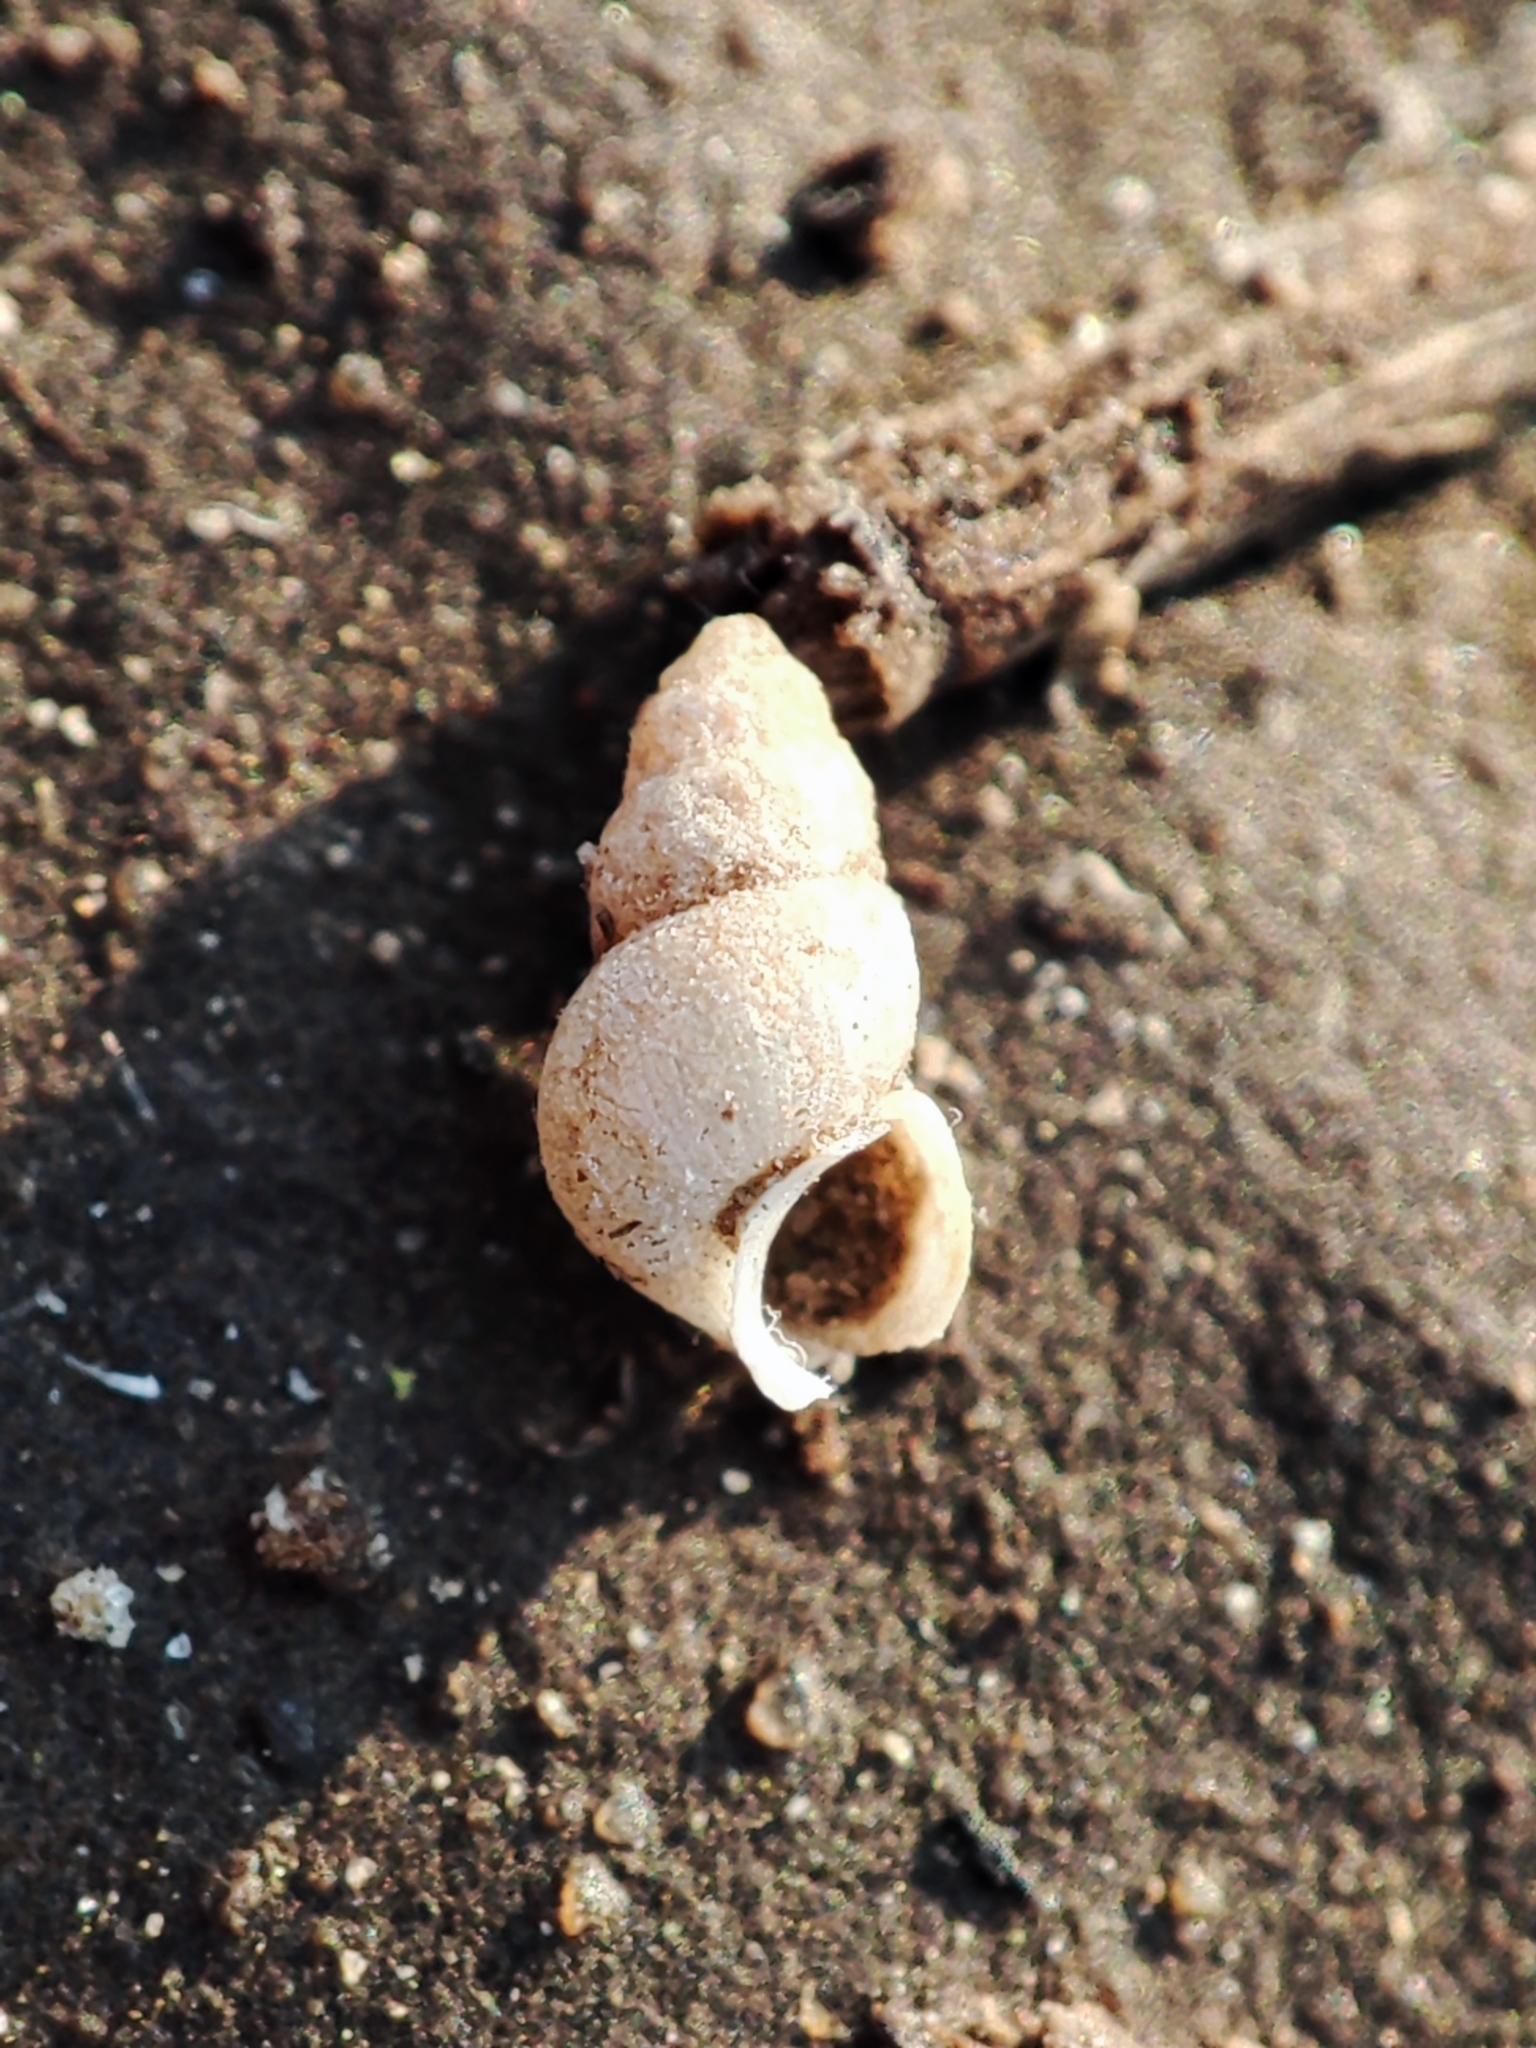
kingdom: Animalia
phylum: Mollusca
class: Gastropoda
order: Littorinimorpha
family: Hydrobiidae
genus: Ecrobia
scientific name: Ecrobia maritima
